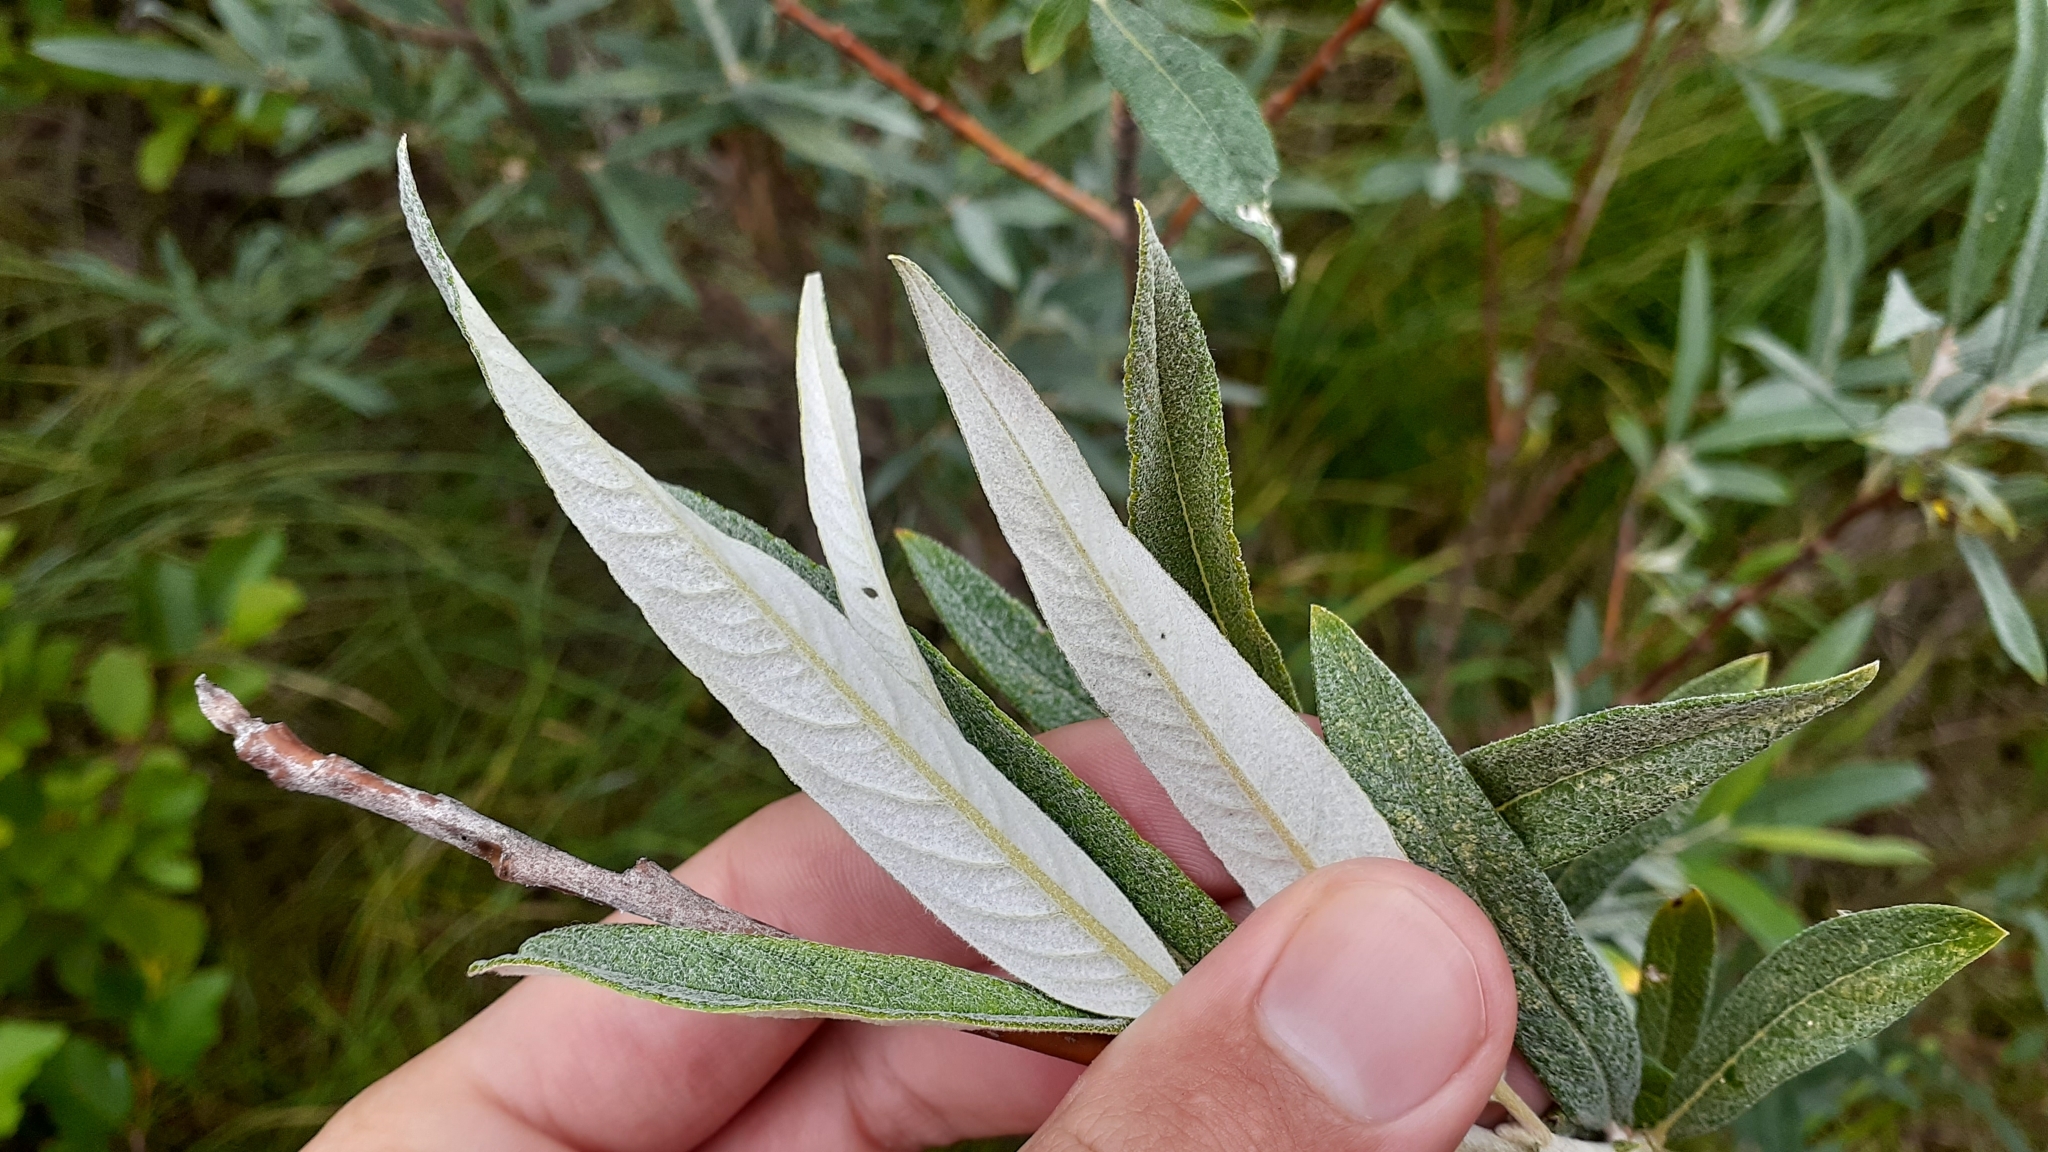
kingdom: Plantae
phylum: Tracheophyta
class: Magnoliopsida
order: Malpighiales
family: Salicaceae
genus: Salix
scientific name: Salix candida
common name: Hoary willow
